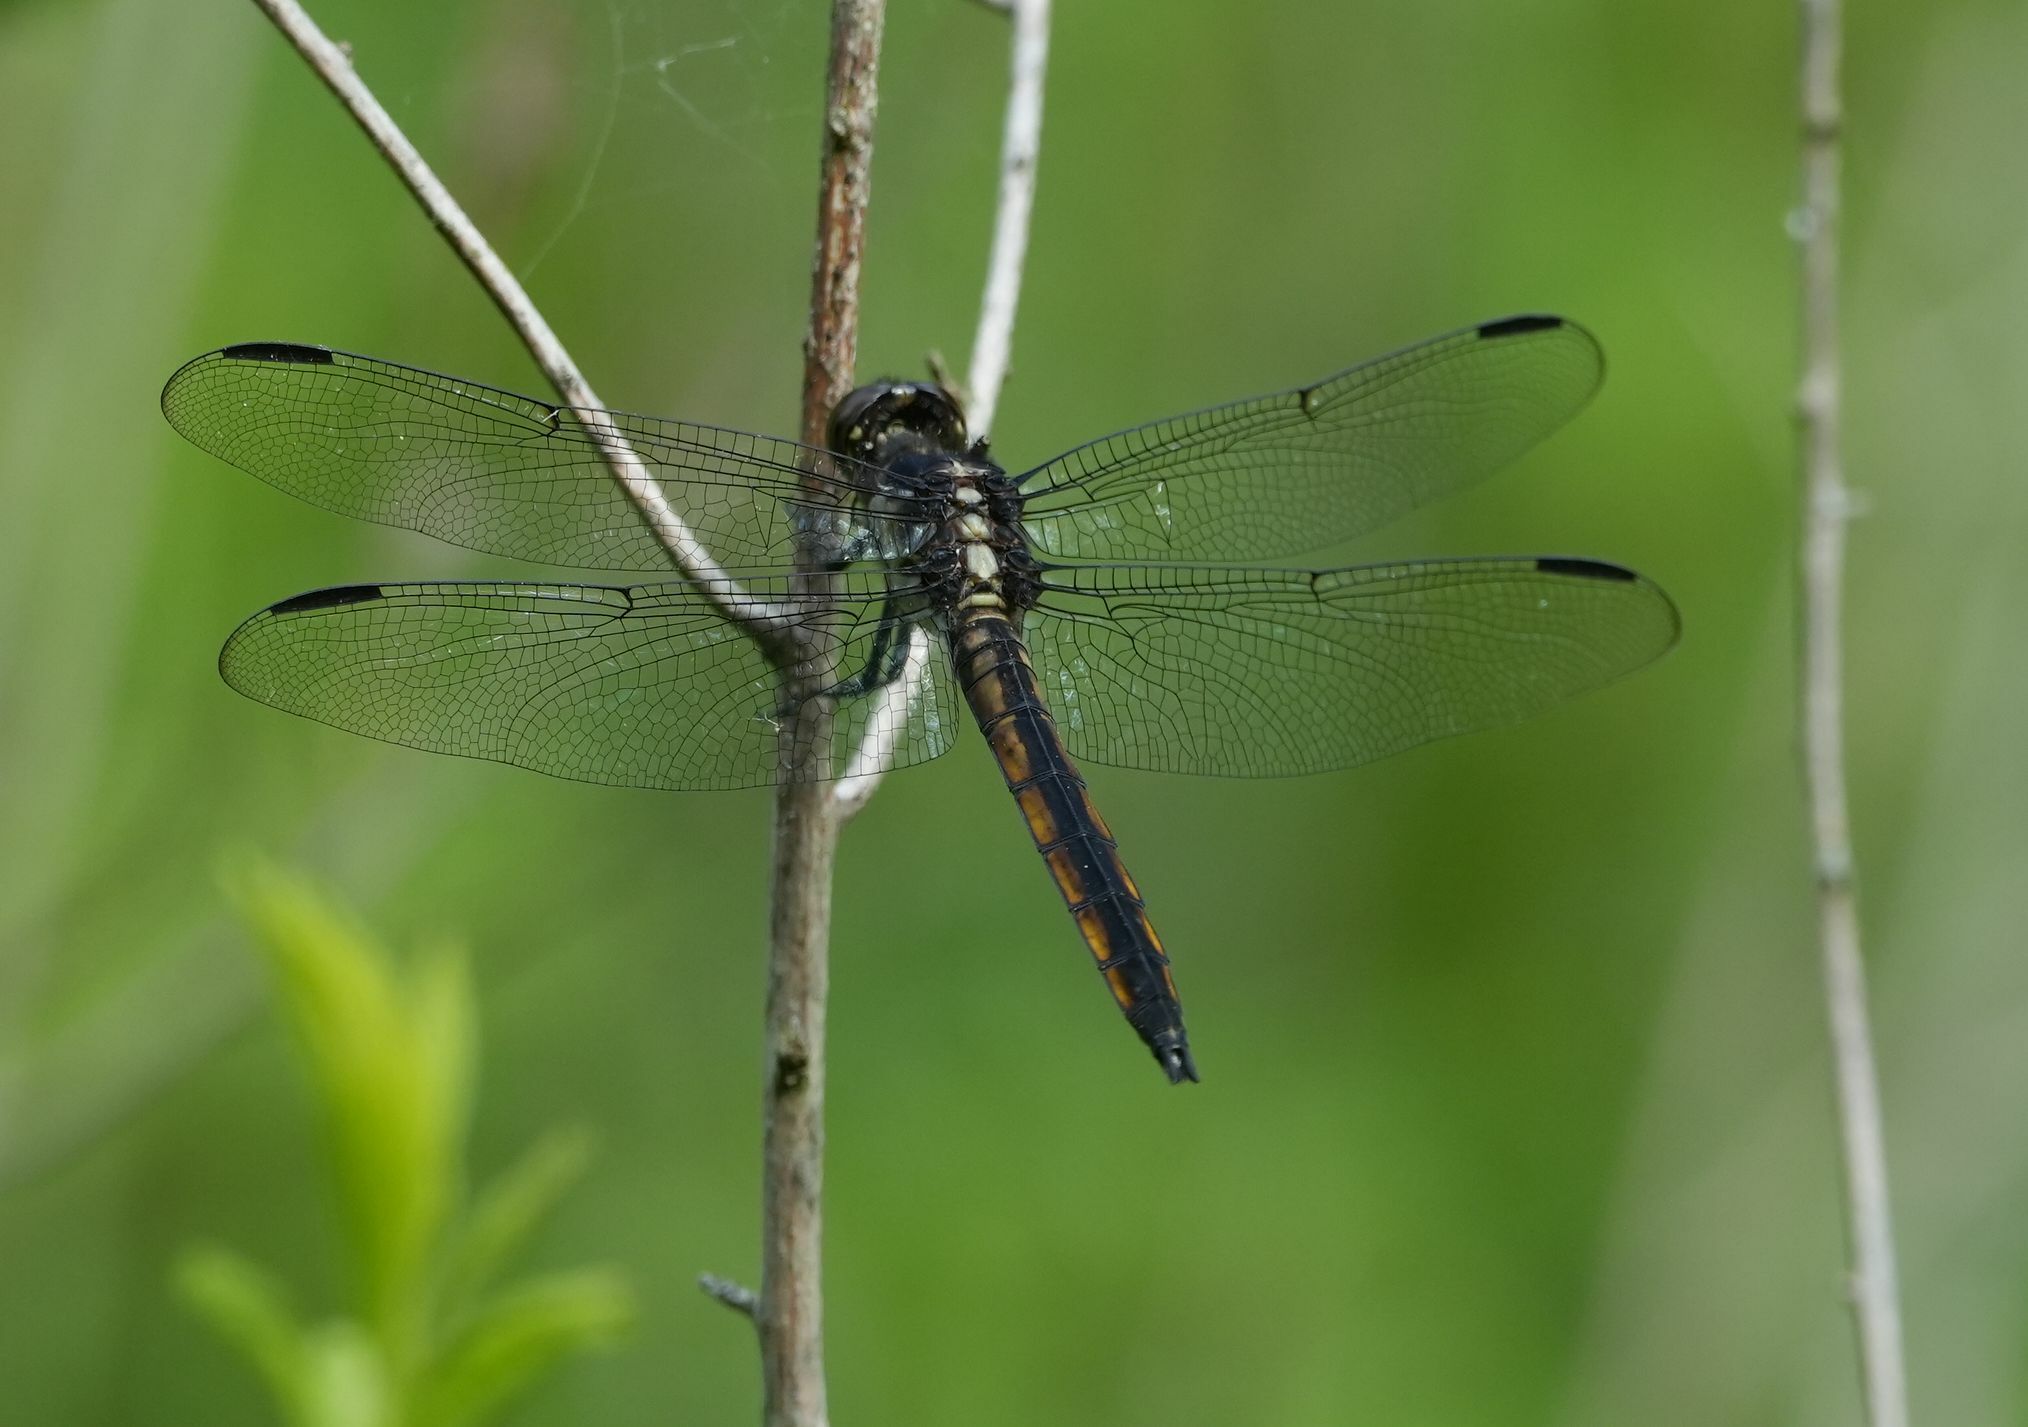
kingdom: Animalia
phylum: Arthropoda
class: Insecta
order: Odonata
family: Libellulidae
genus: Libellula
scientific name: Libellula incesta
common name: Slaty skimmer
